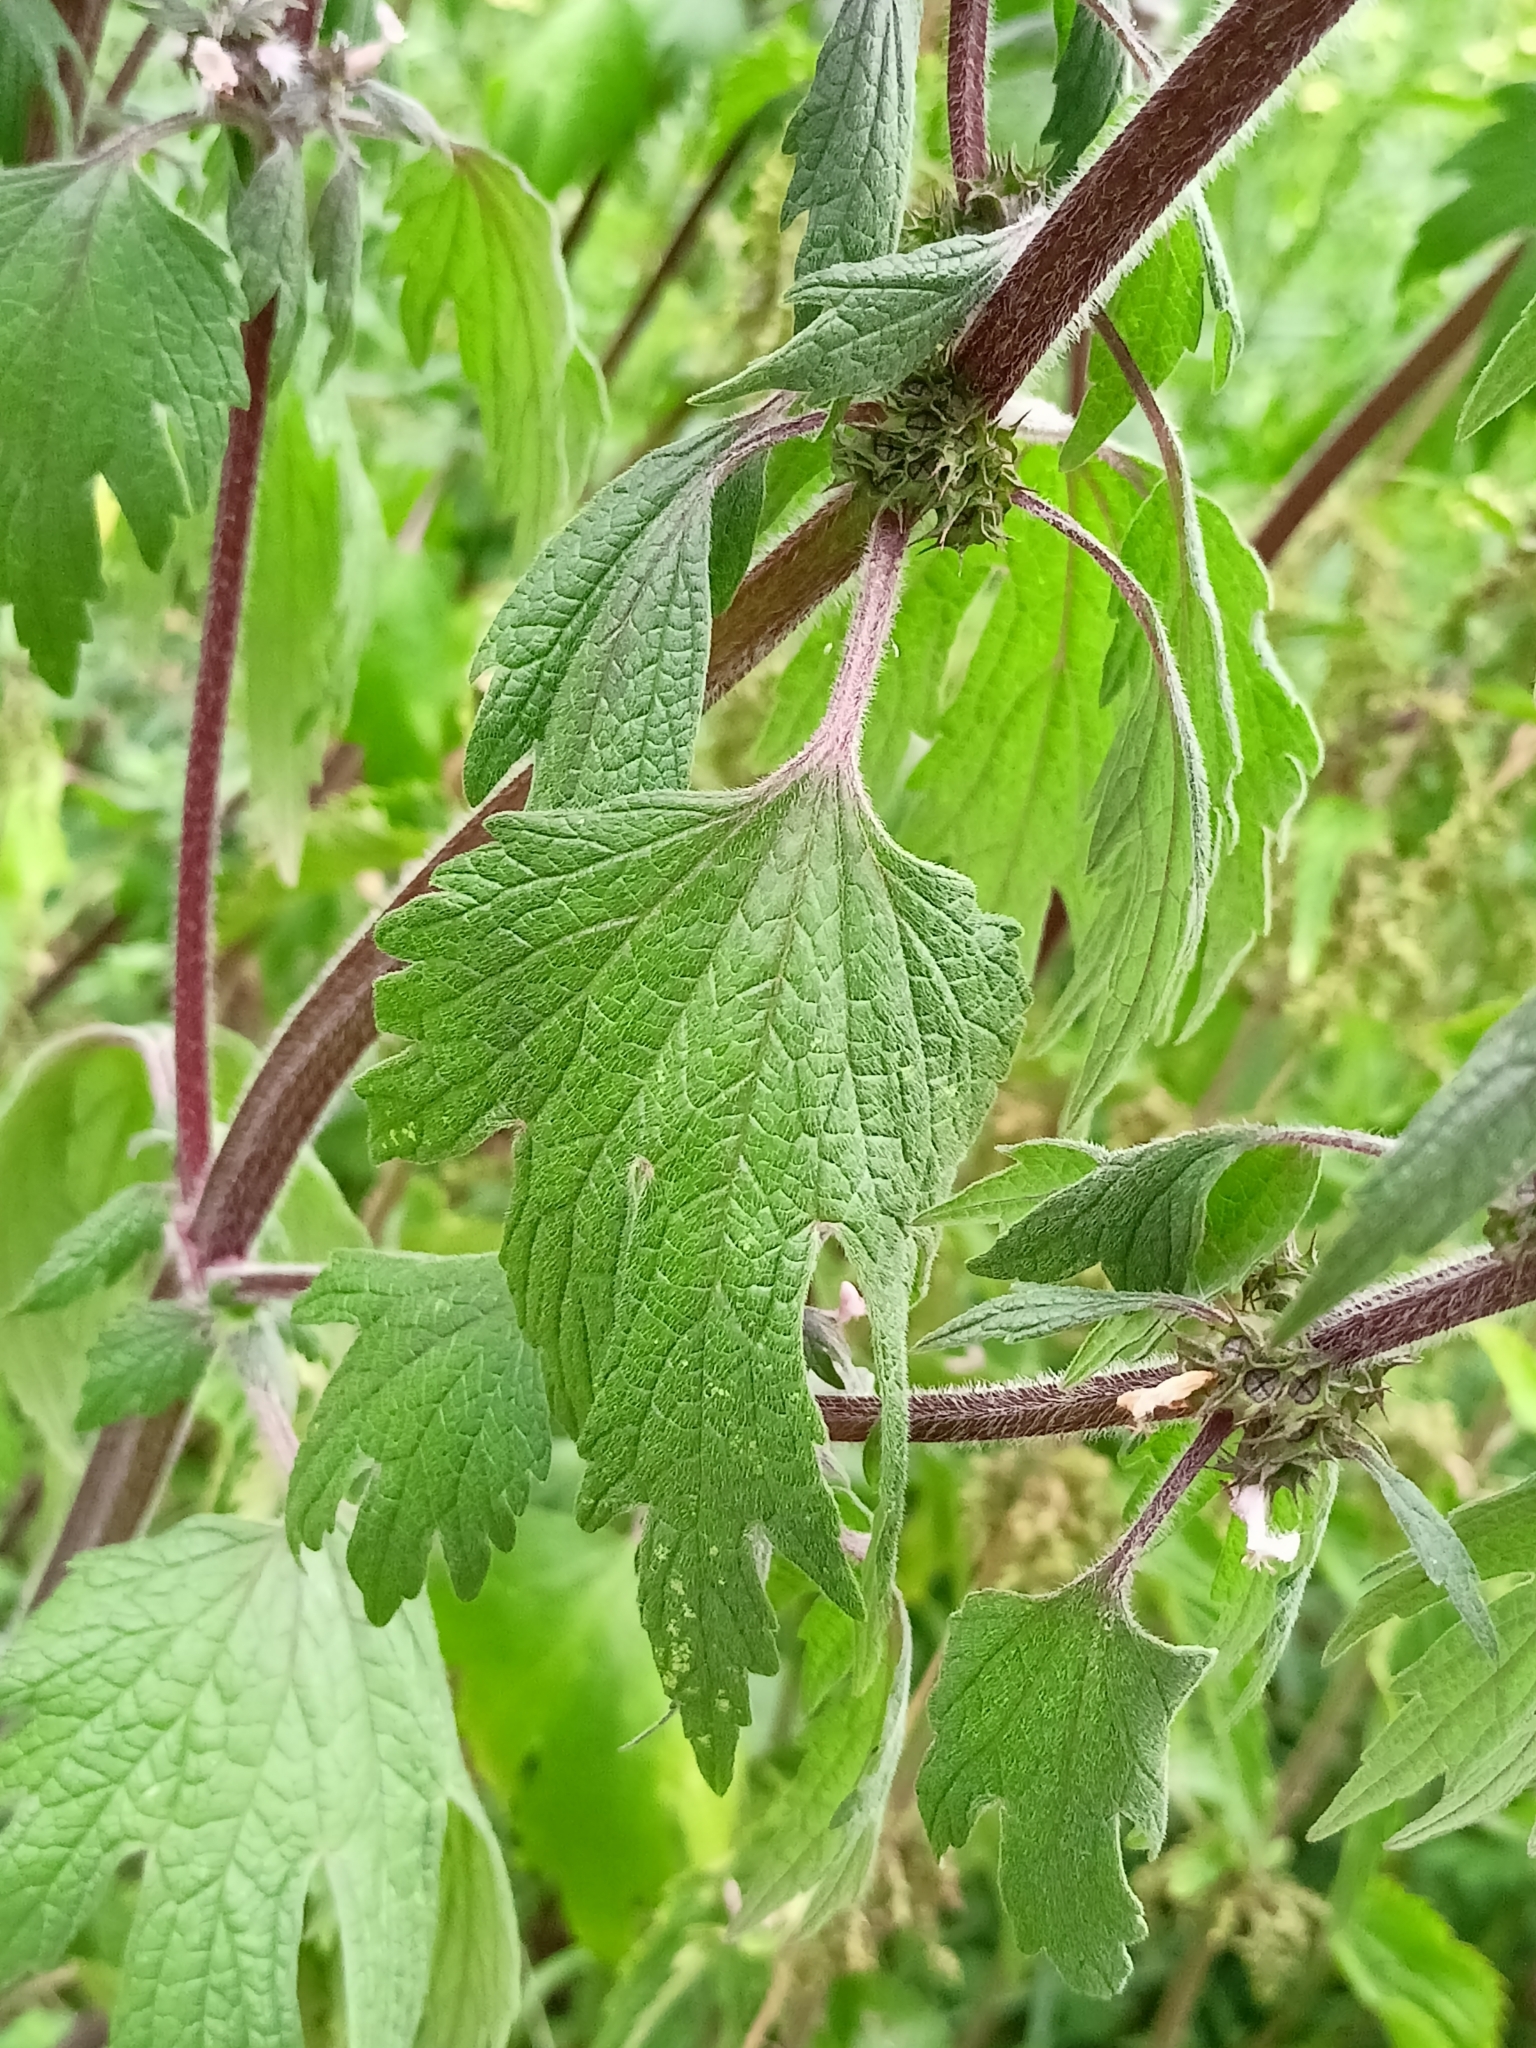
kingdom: Plantae
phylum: Tracheophyta
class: Magnoliopsida
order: Lamiales
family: Lamiaceae
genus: Leonurus
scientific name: Leonurus quinquelobatus
